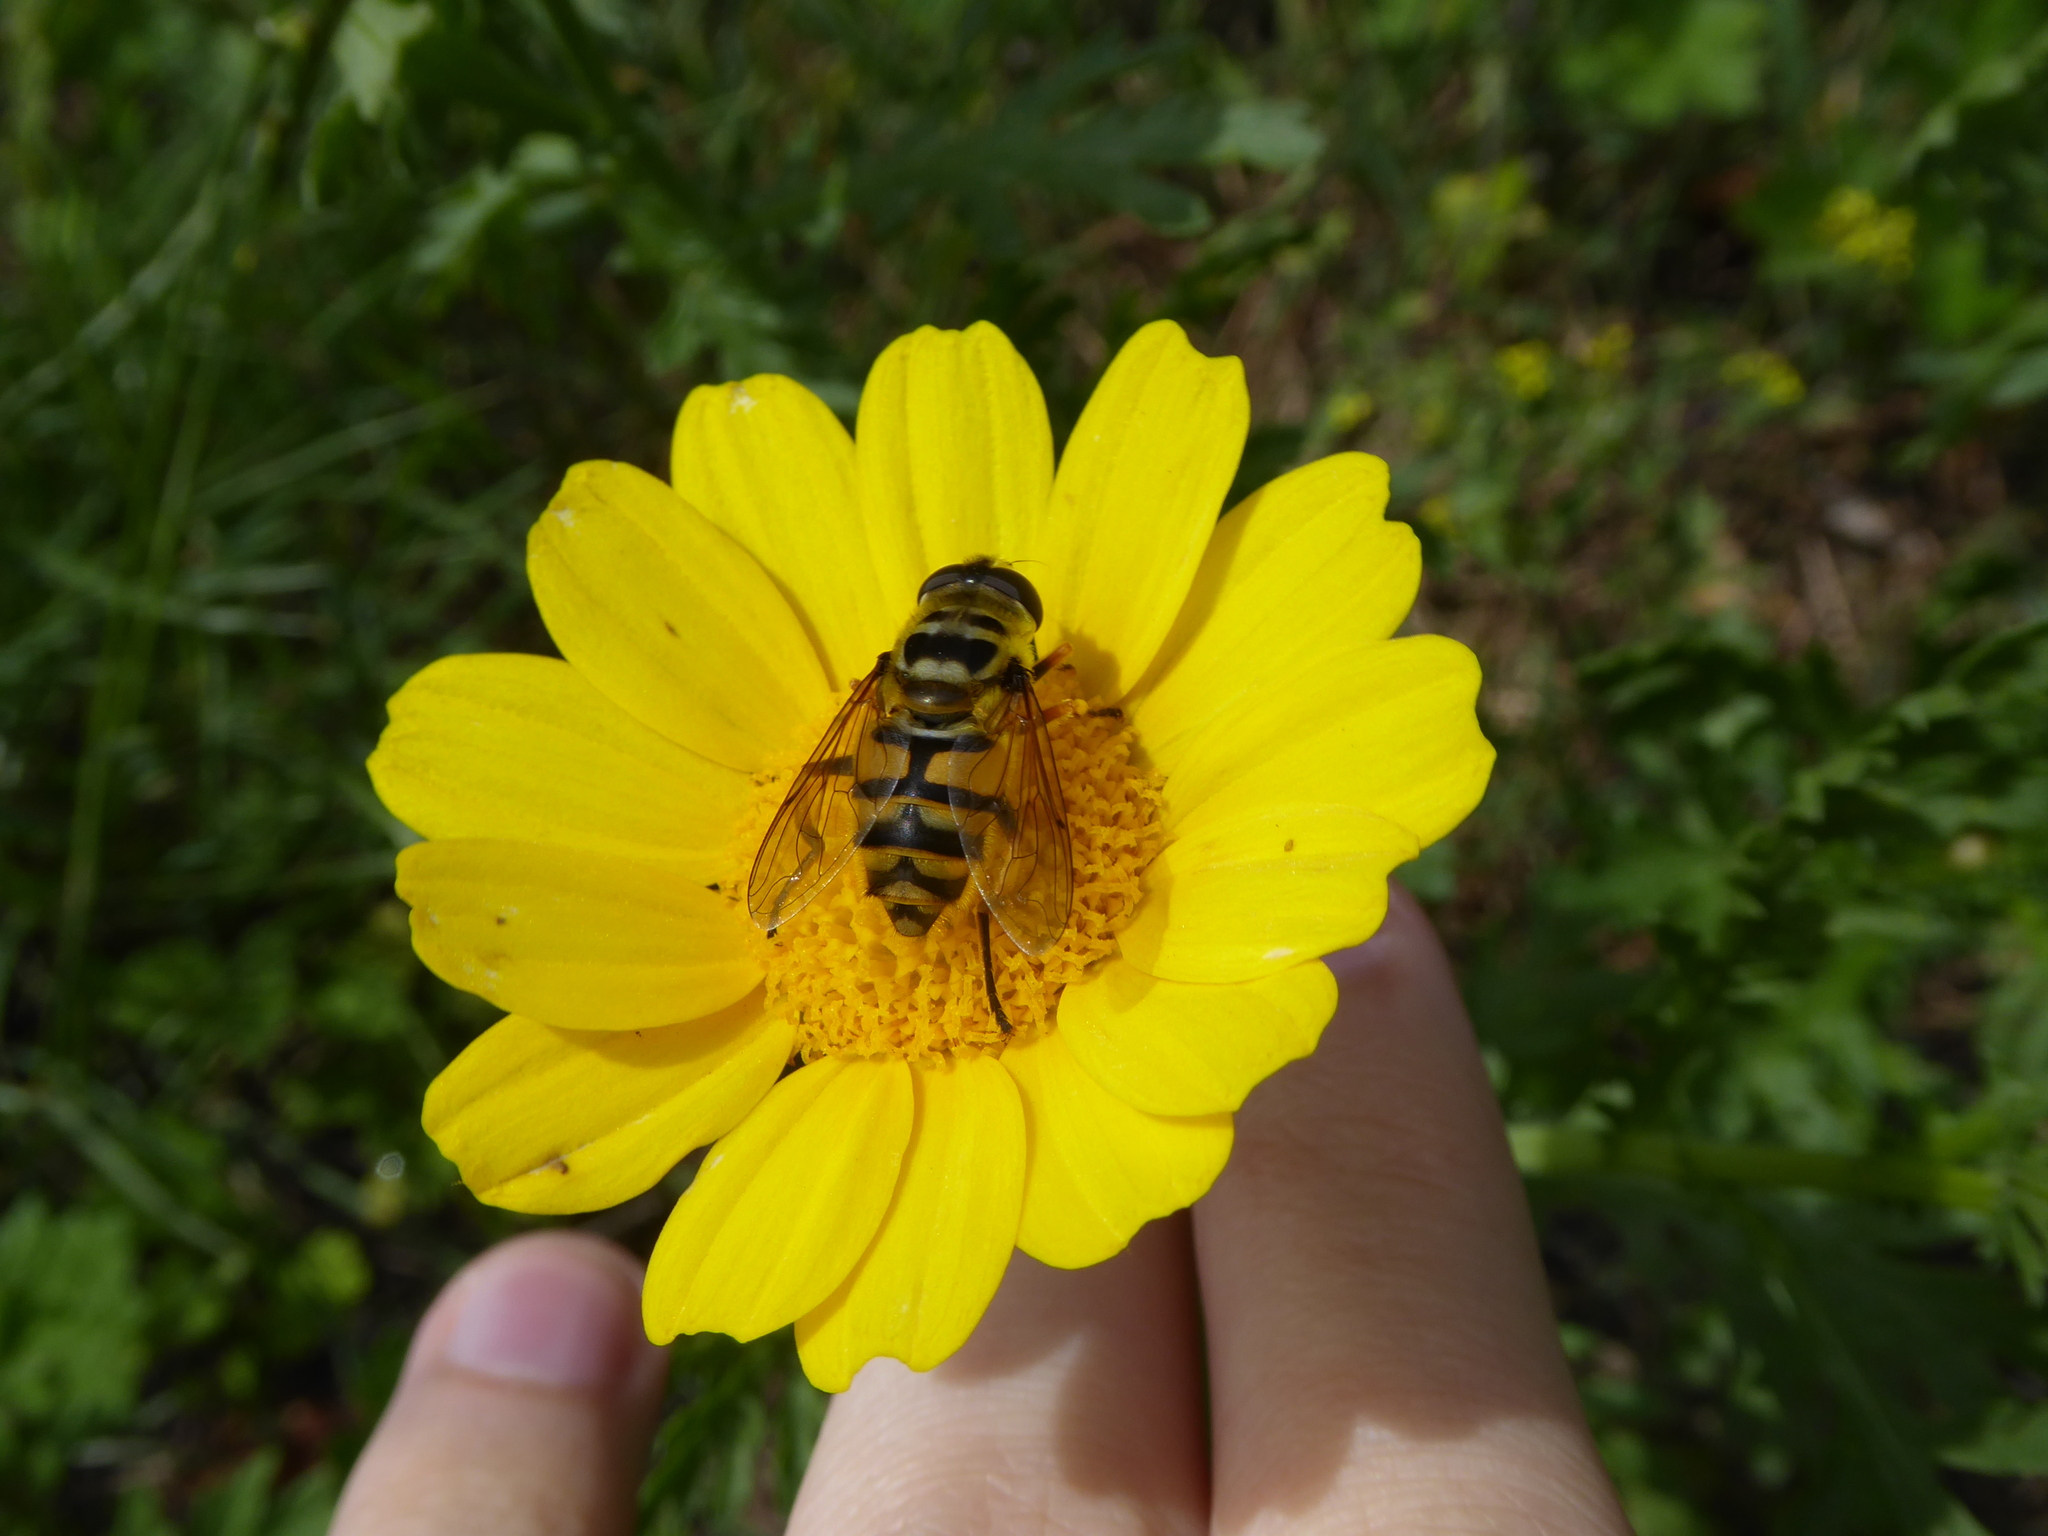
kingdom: Animalia
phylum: Arthropoda
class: Insecta
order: Diptera
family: Syrphidae
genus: Myathropa
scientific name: Myathropa florea
